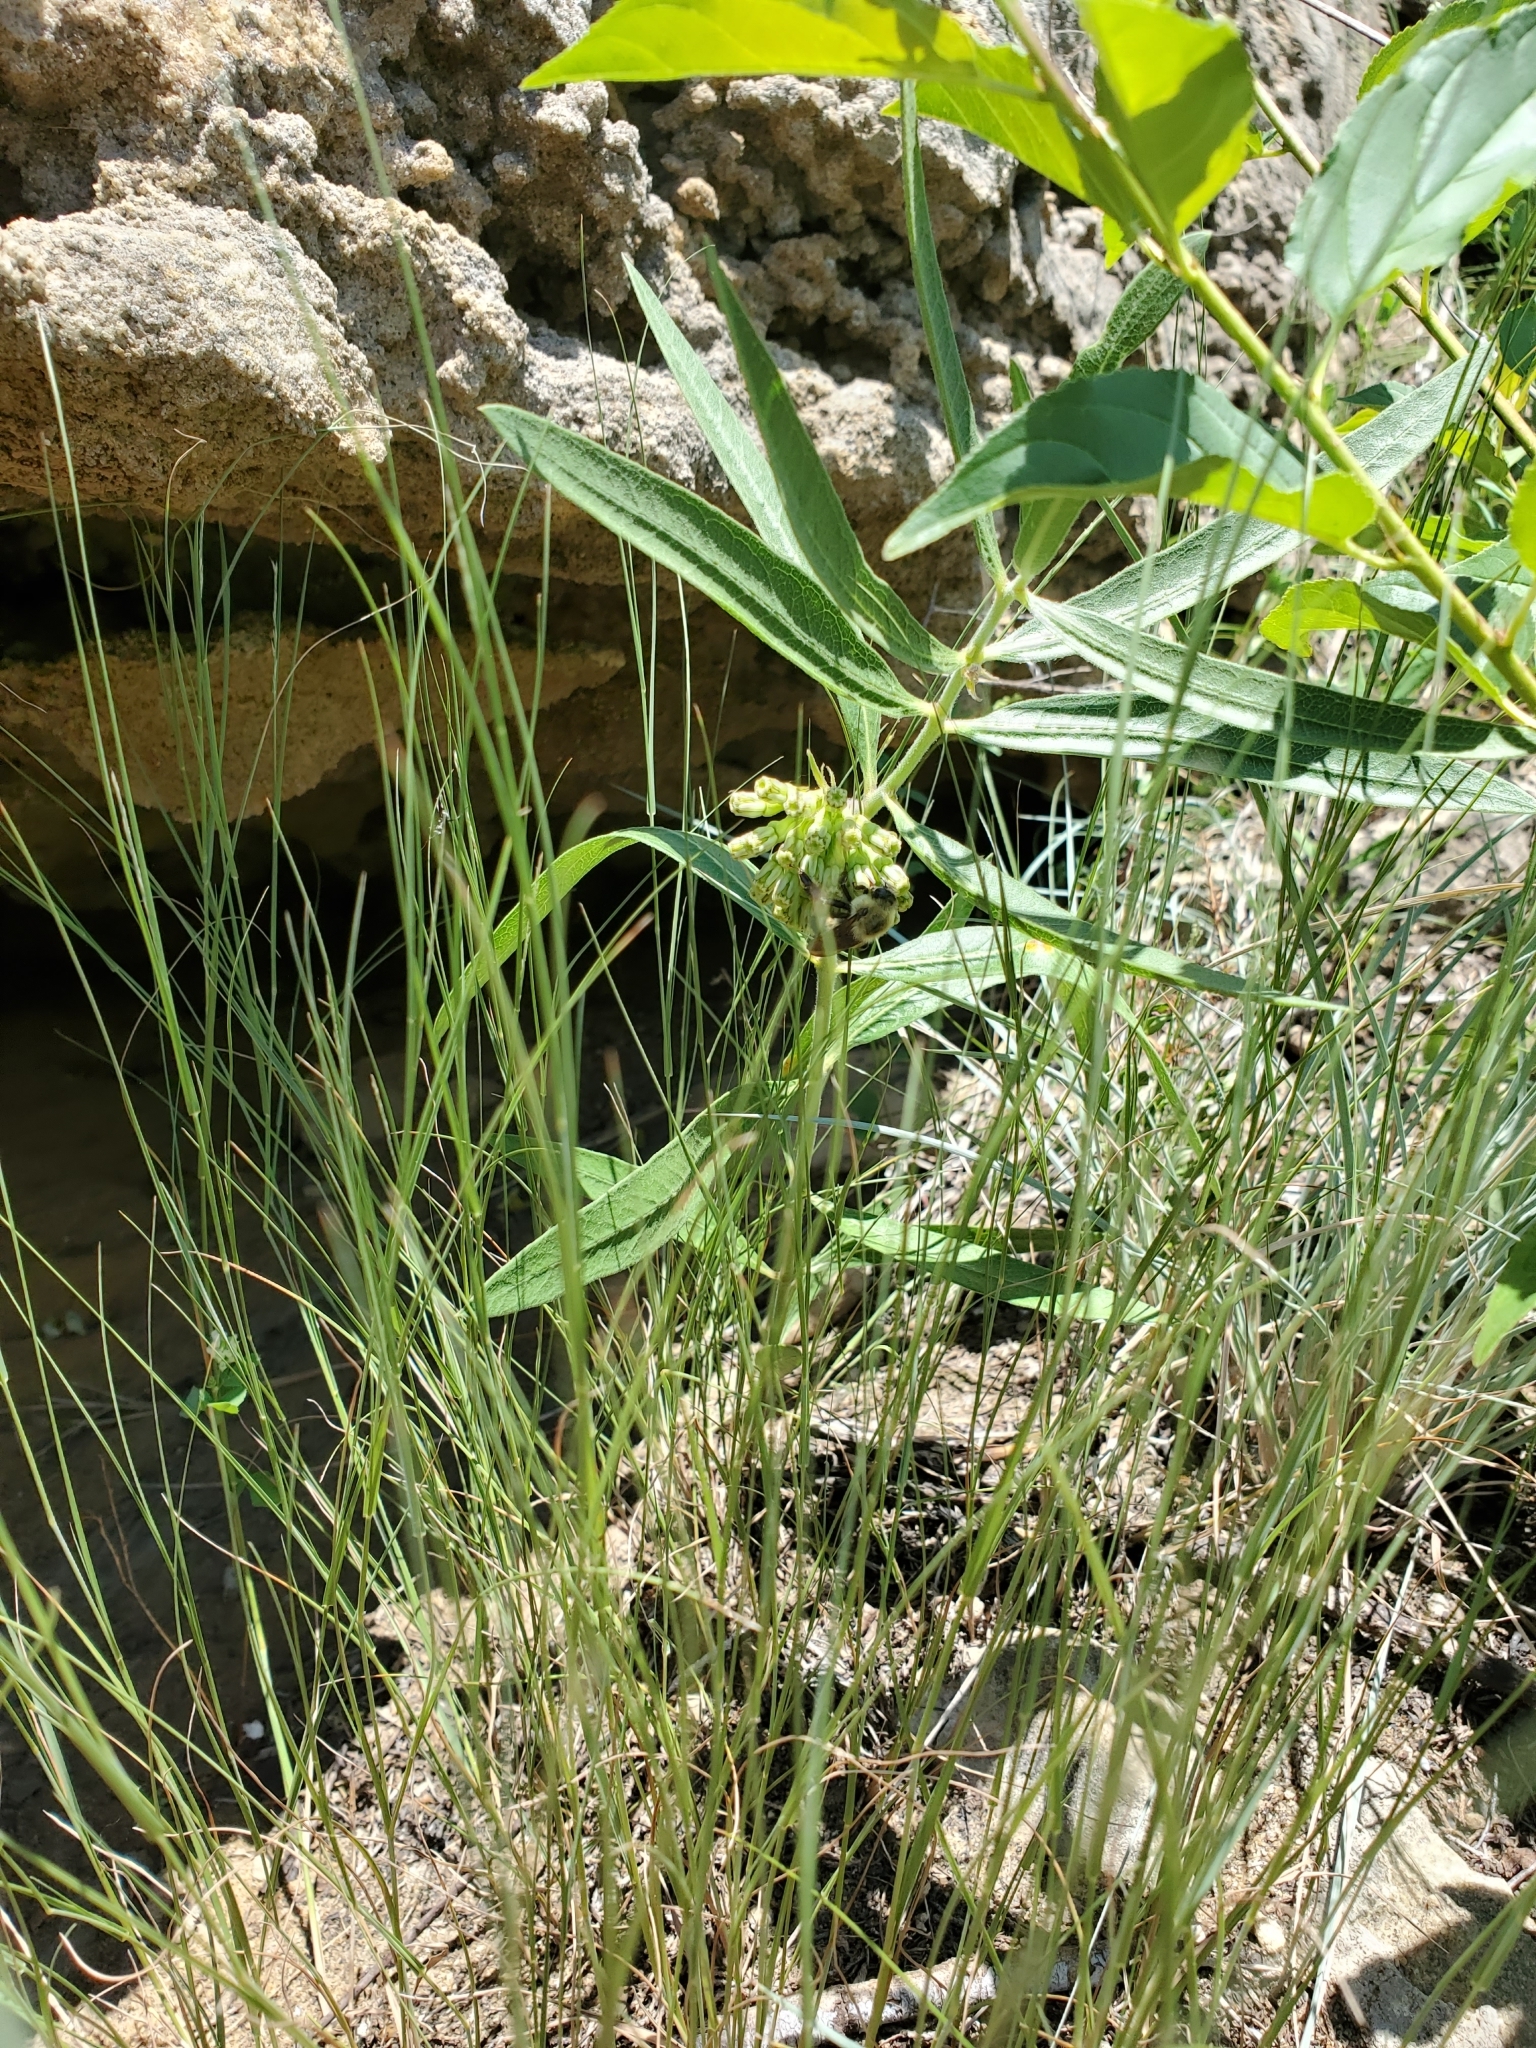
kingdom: Plantae
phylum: Tracheophyta
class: Magnoliopsida
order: Gentianales
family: Apocynaceae
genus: Asclepias
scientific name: Asclepias viridiflora
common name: Green comet milkweed
